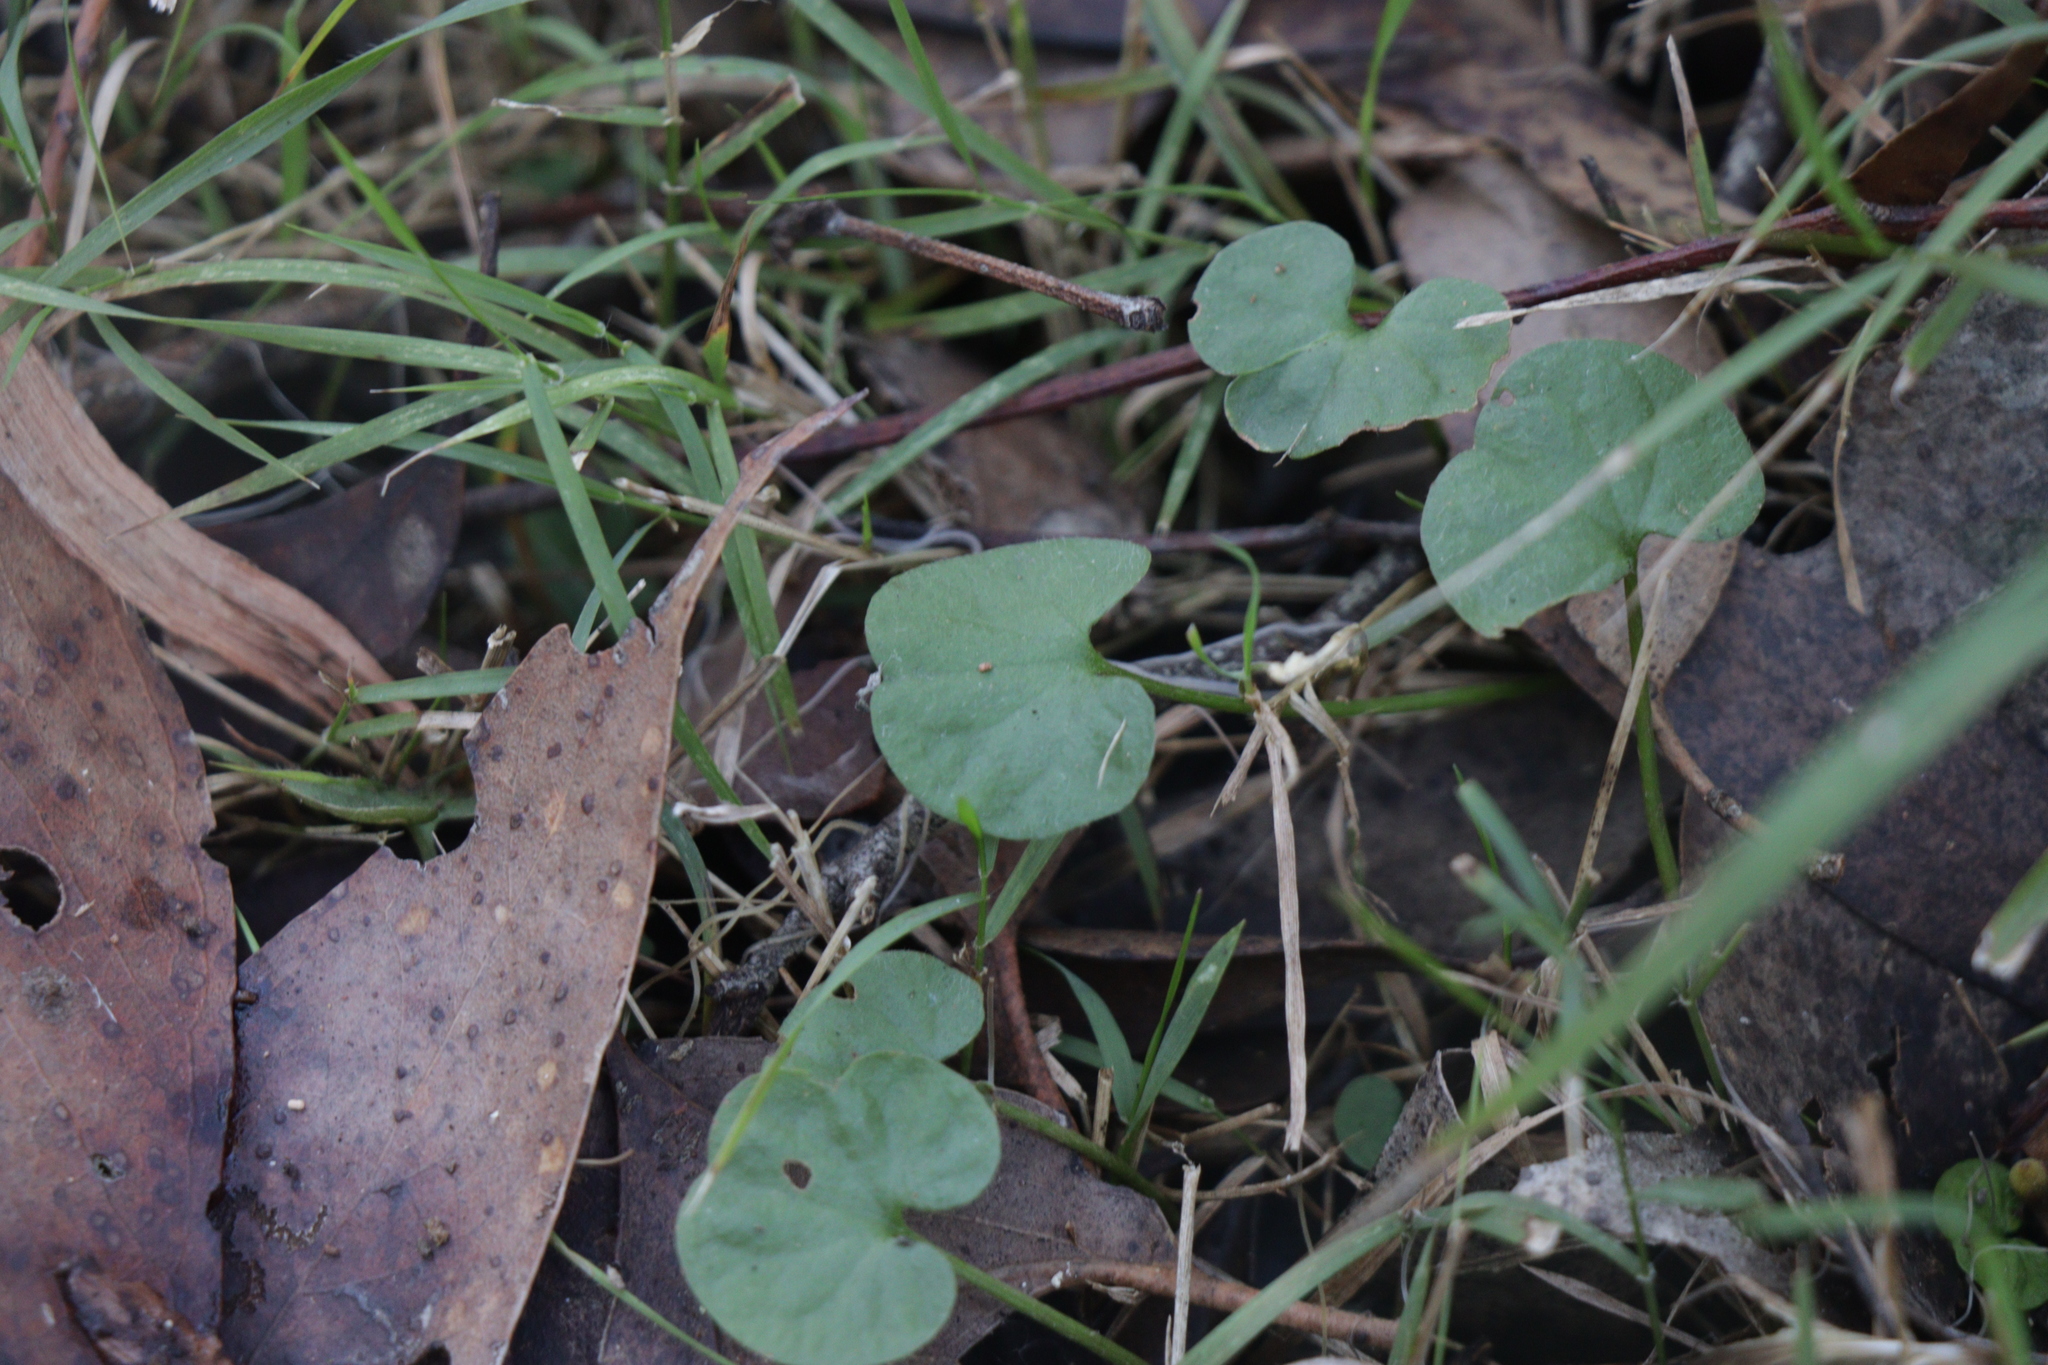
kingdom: Plantae
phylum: Tracheophyta
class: Magnoliopsida
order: Solanales
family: Convolvulaceae
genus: Dichondra
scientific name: Dichondra repens
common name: Kidneyweed
